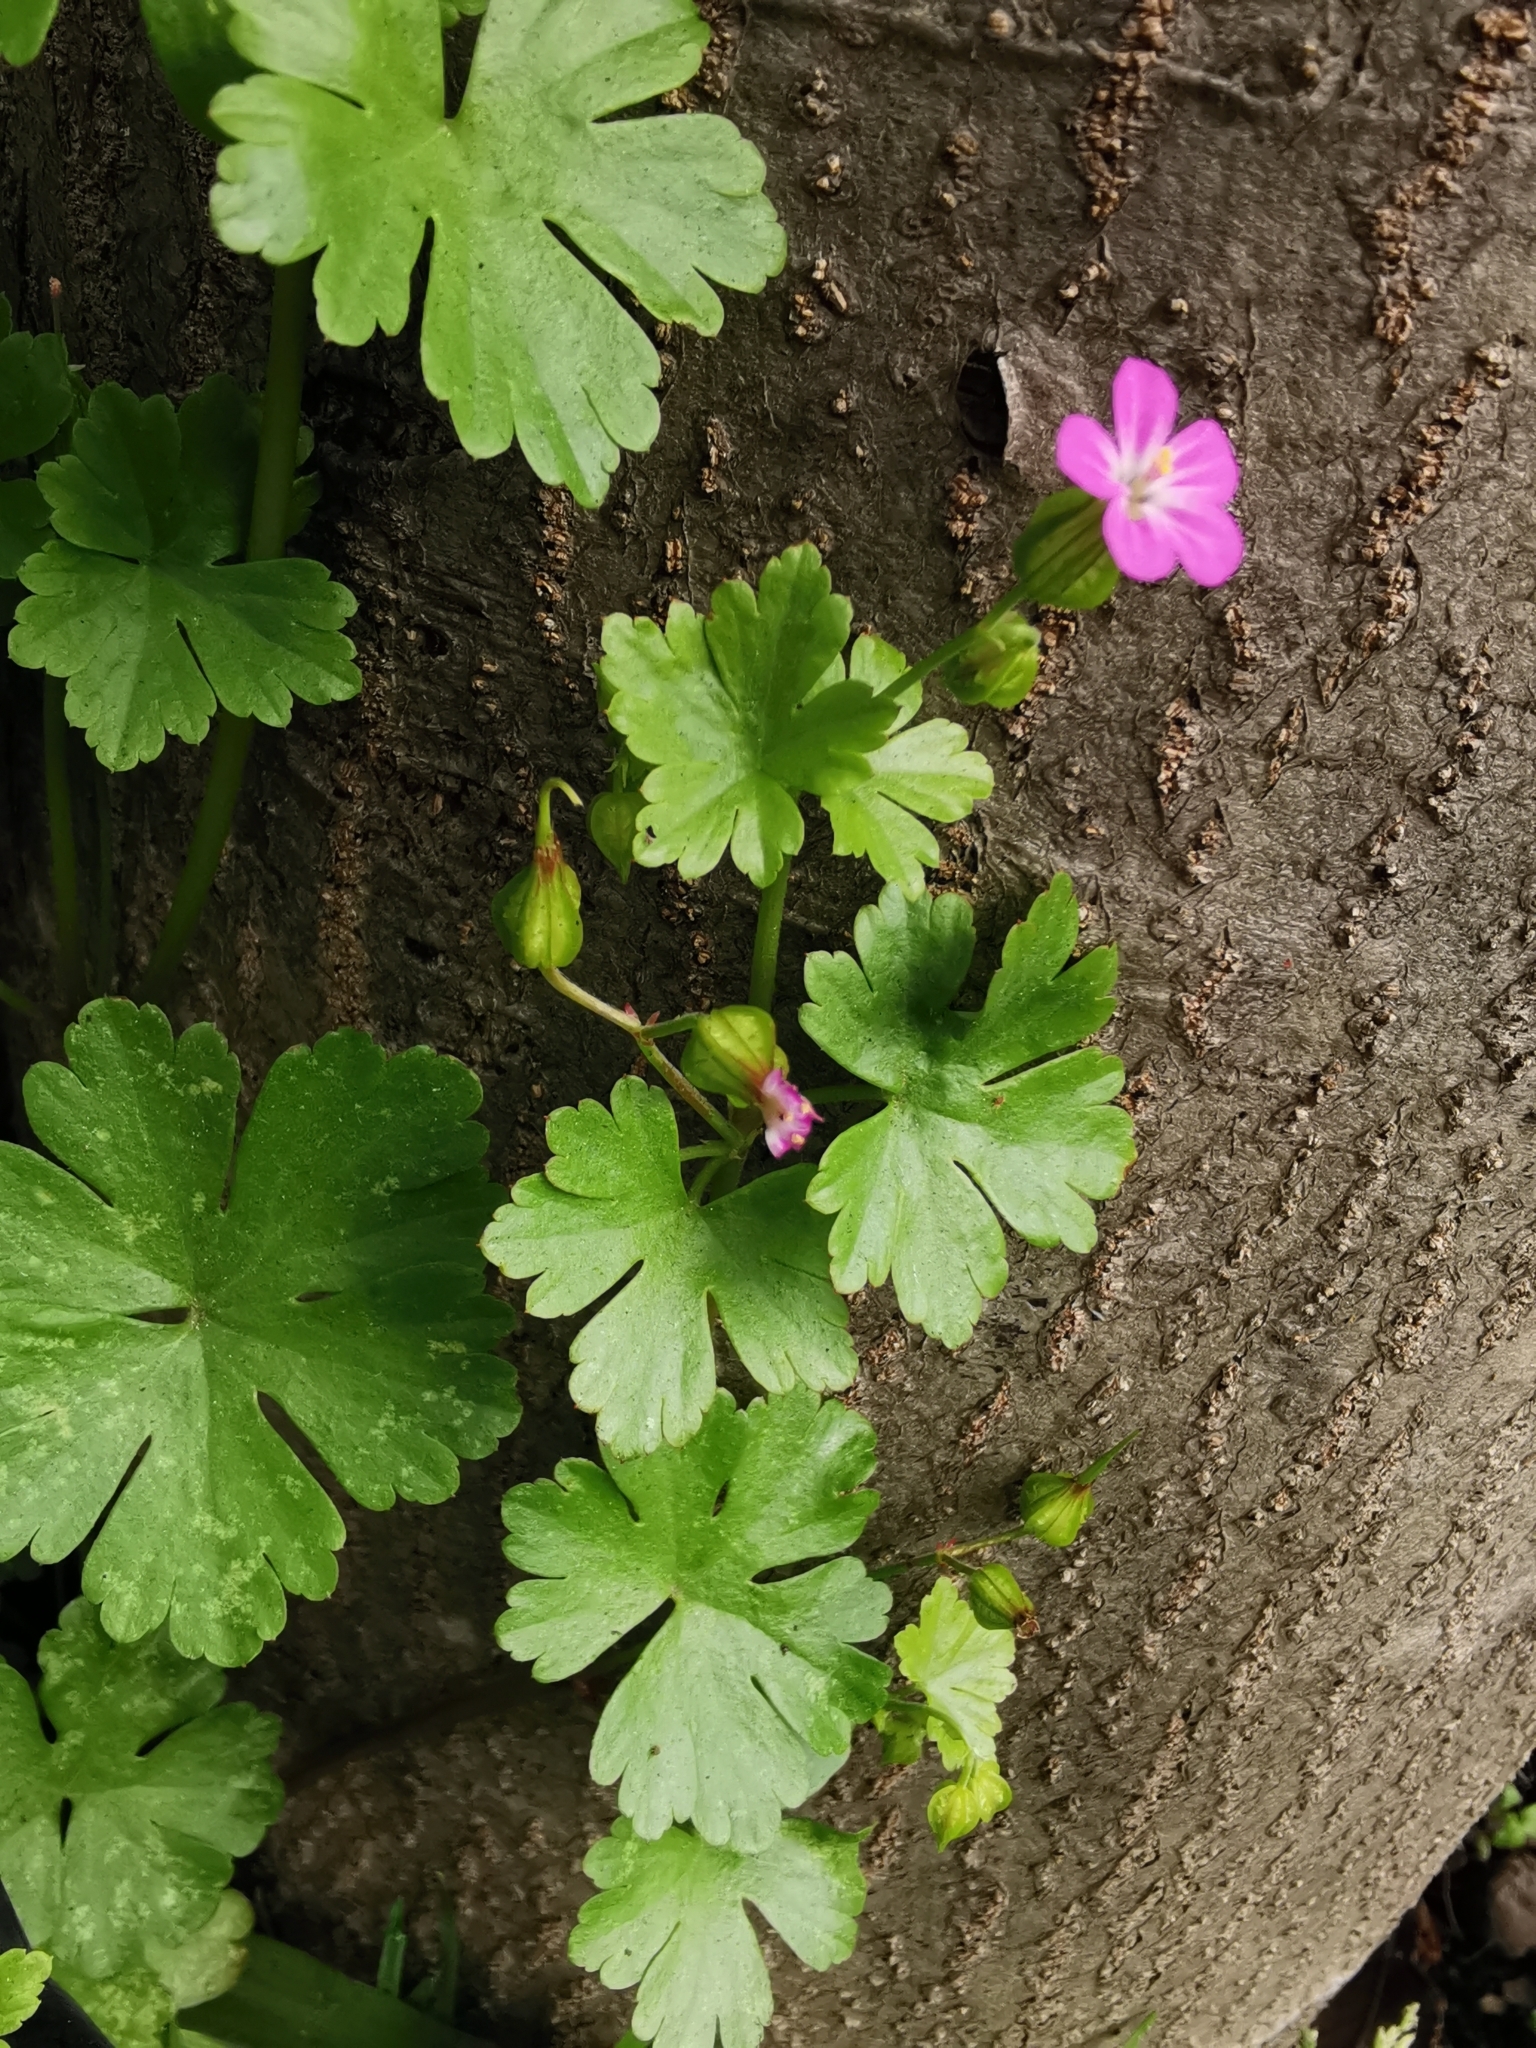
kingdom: Plantae
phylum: Tracheophyta
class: Magnoliopsida
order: Geraniales
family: Geraniaceae
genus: Geranium
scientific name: Geranium lucidum
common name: Shining crane's-bill
